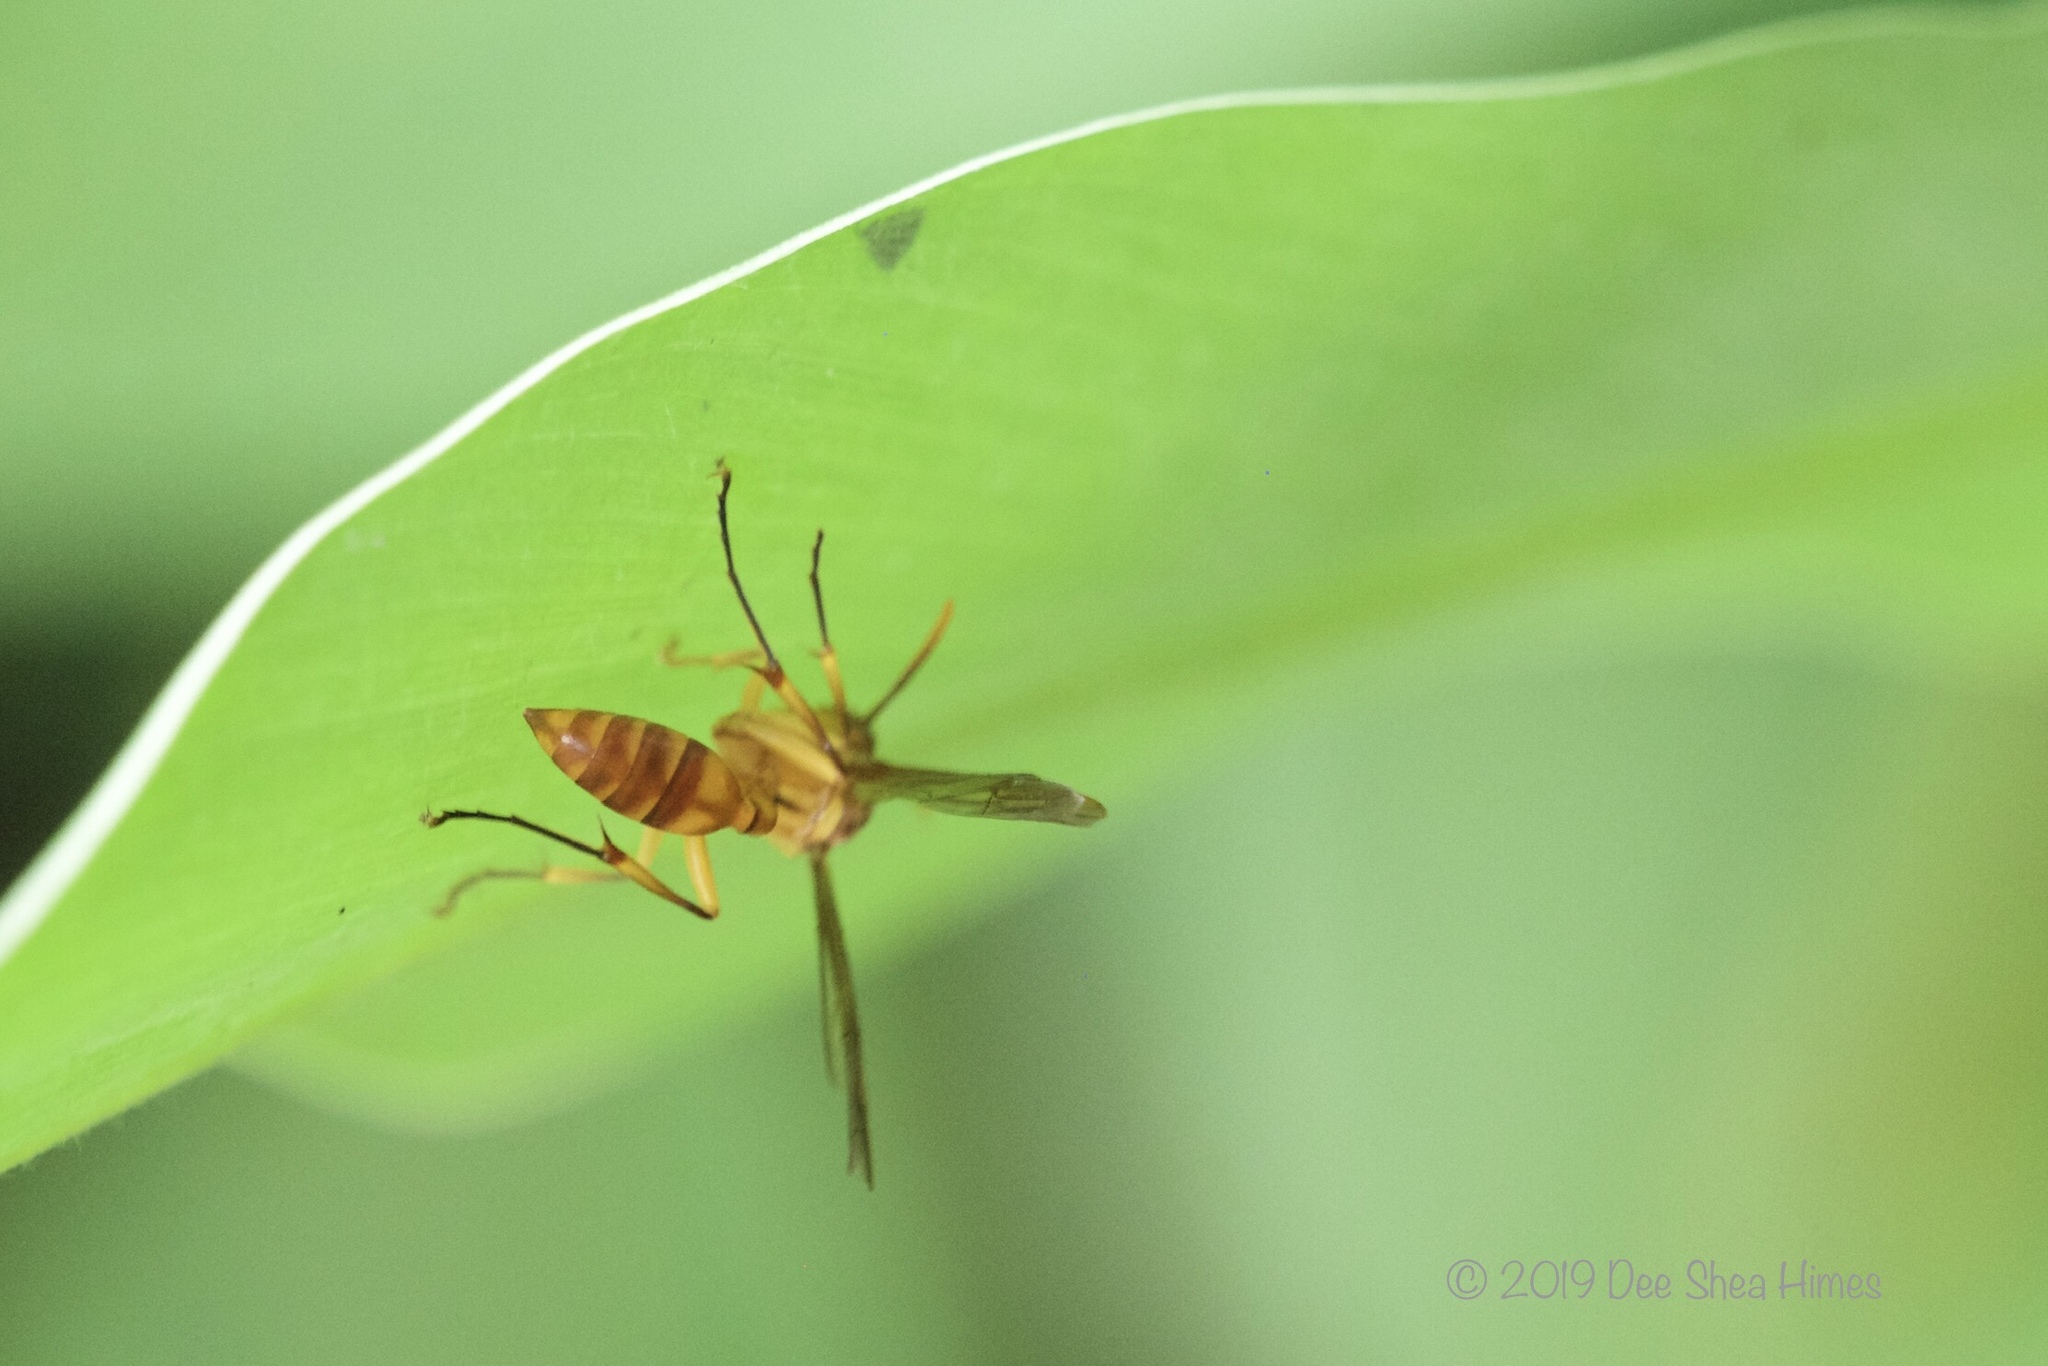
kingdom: Animalia
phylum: Arthropoda
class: Insecta
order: Hymenoptera
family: Vespidae
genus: Parapolybia
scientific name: Parapolybia indica
